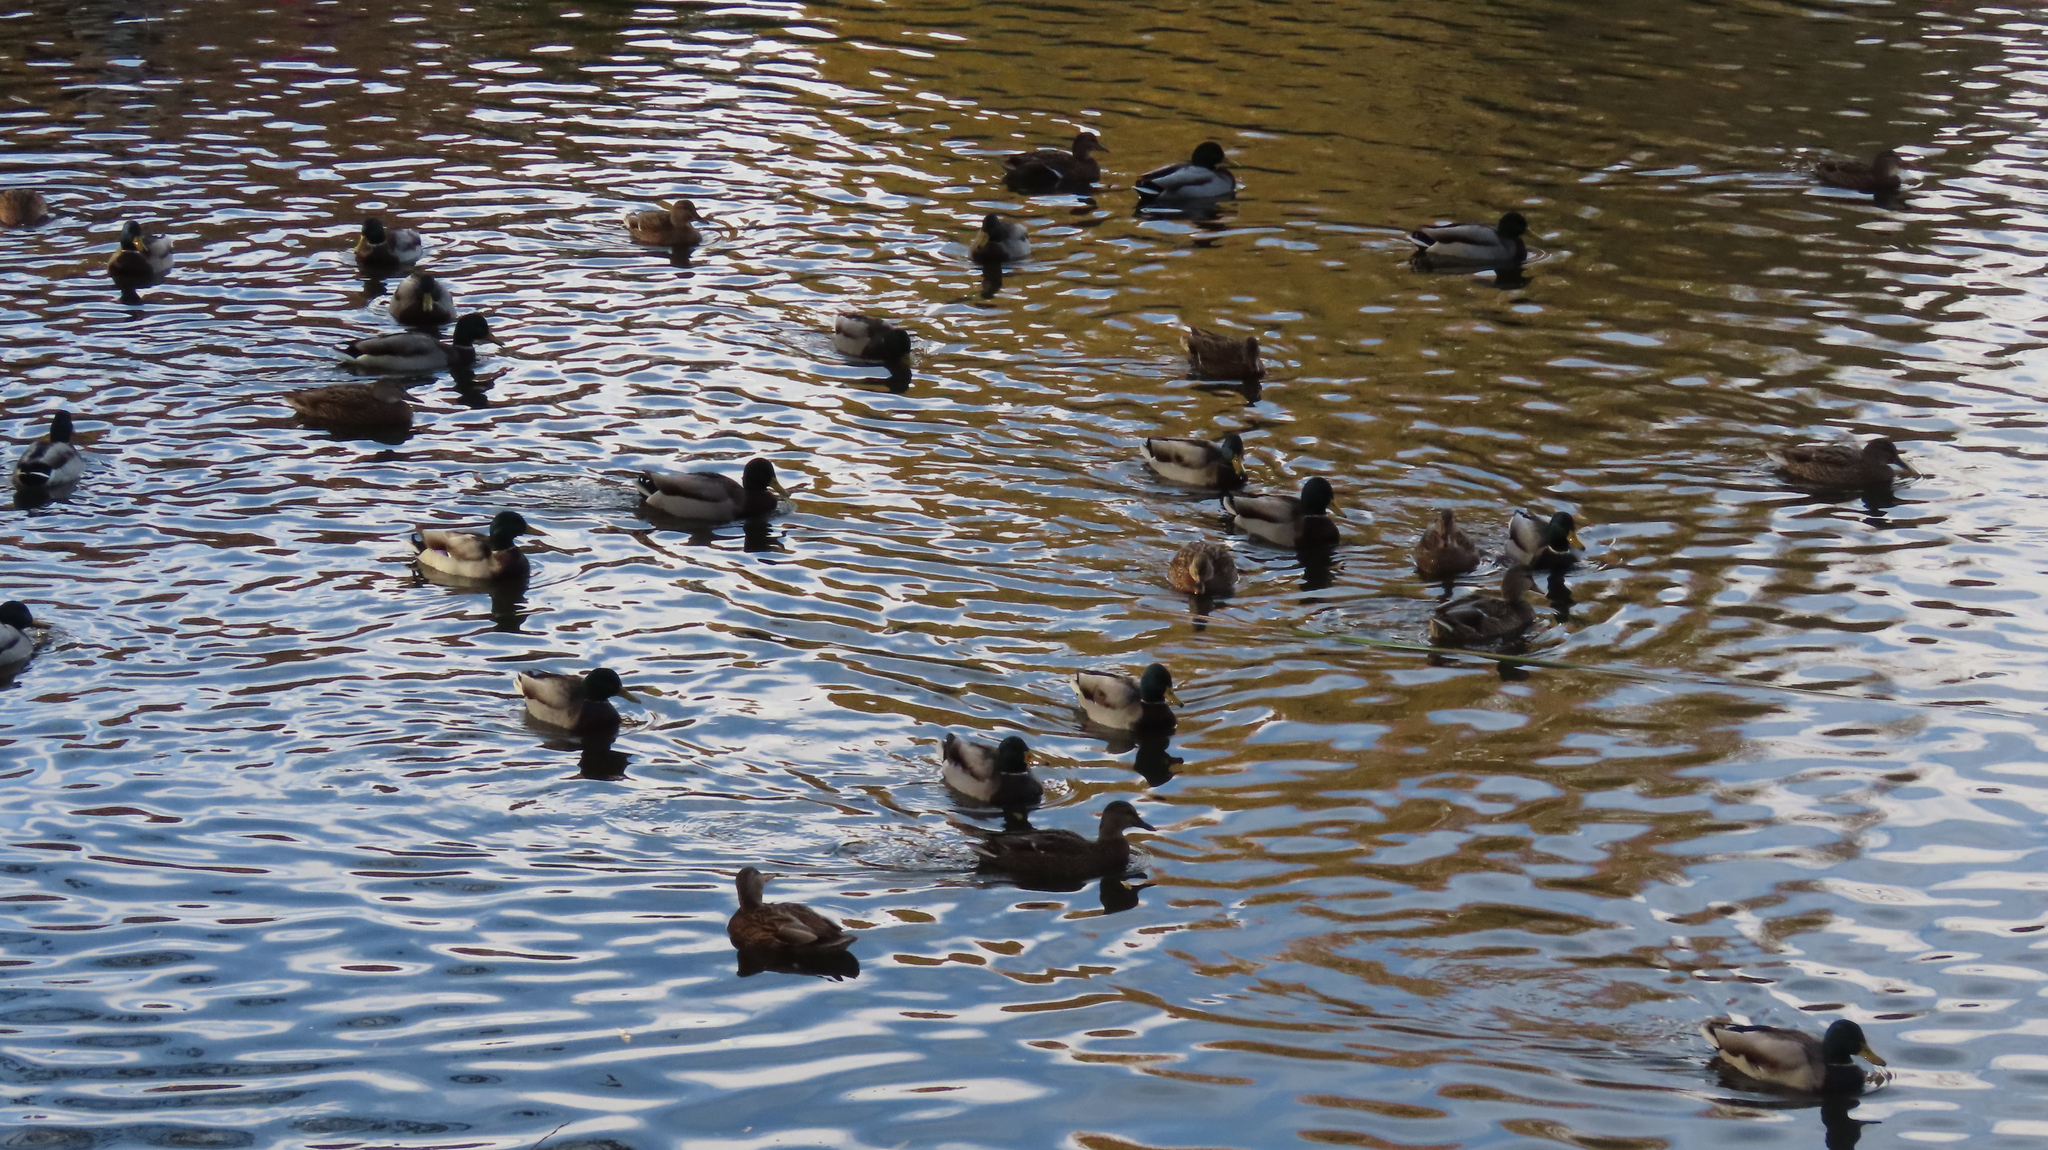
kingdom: Animalia
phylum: Chordata
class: Aves
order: Anseriformes
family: Anatidae
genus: Anas
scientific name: Anas platyrhynchos
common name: Mallard
